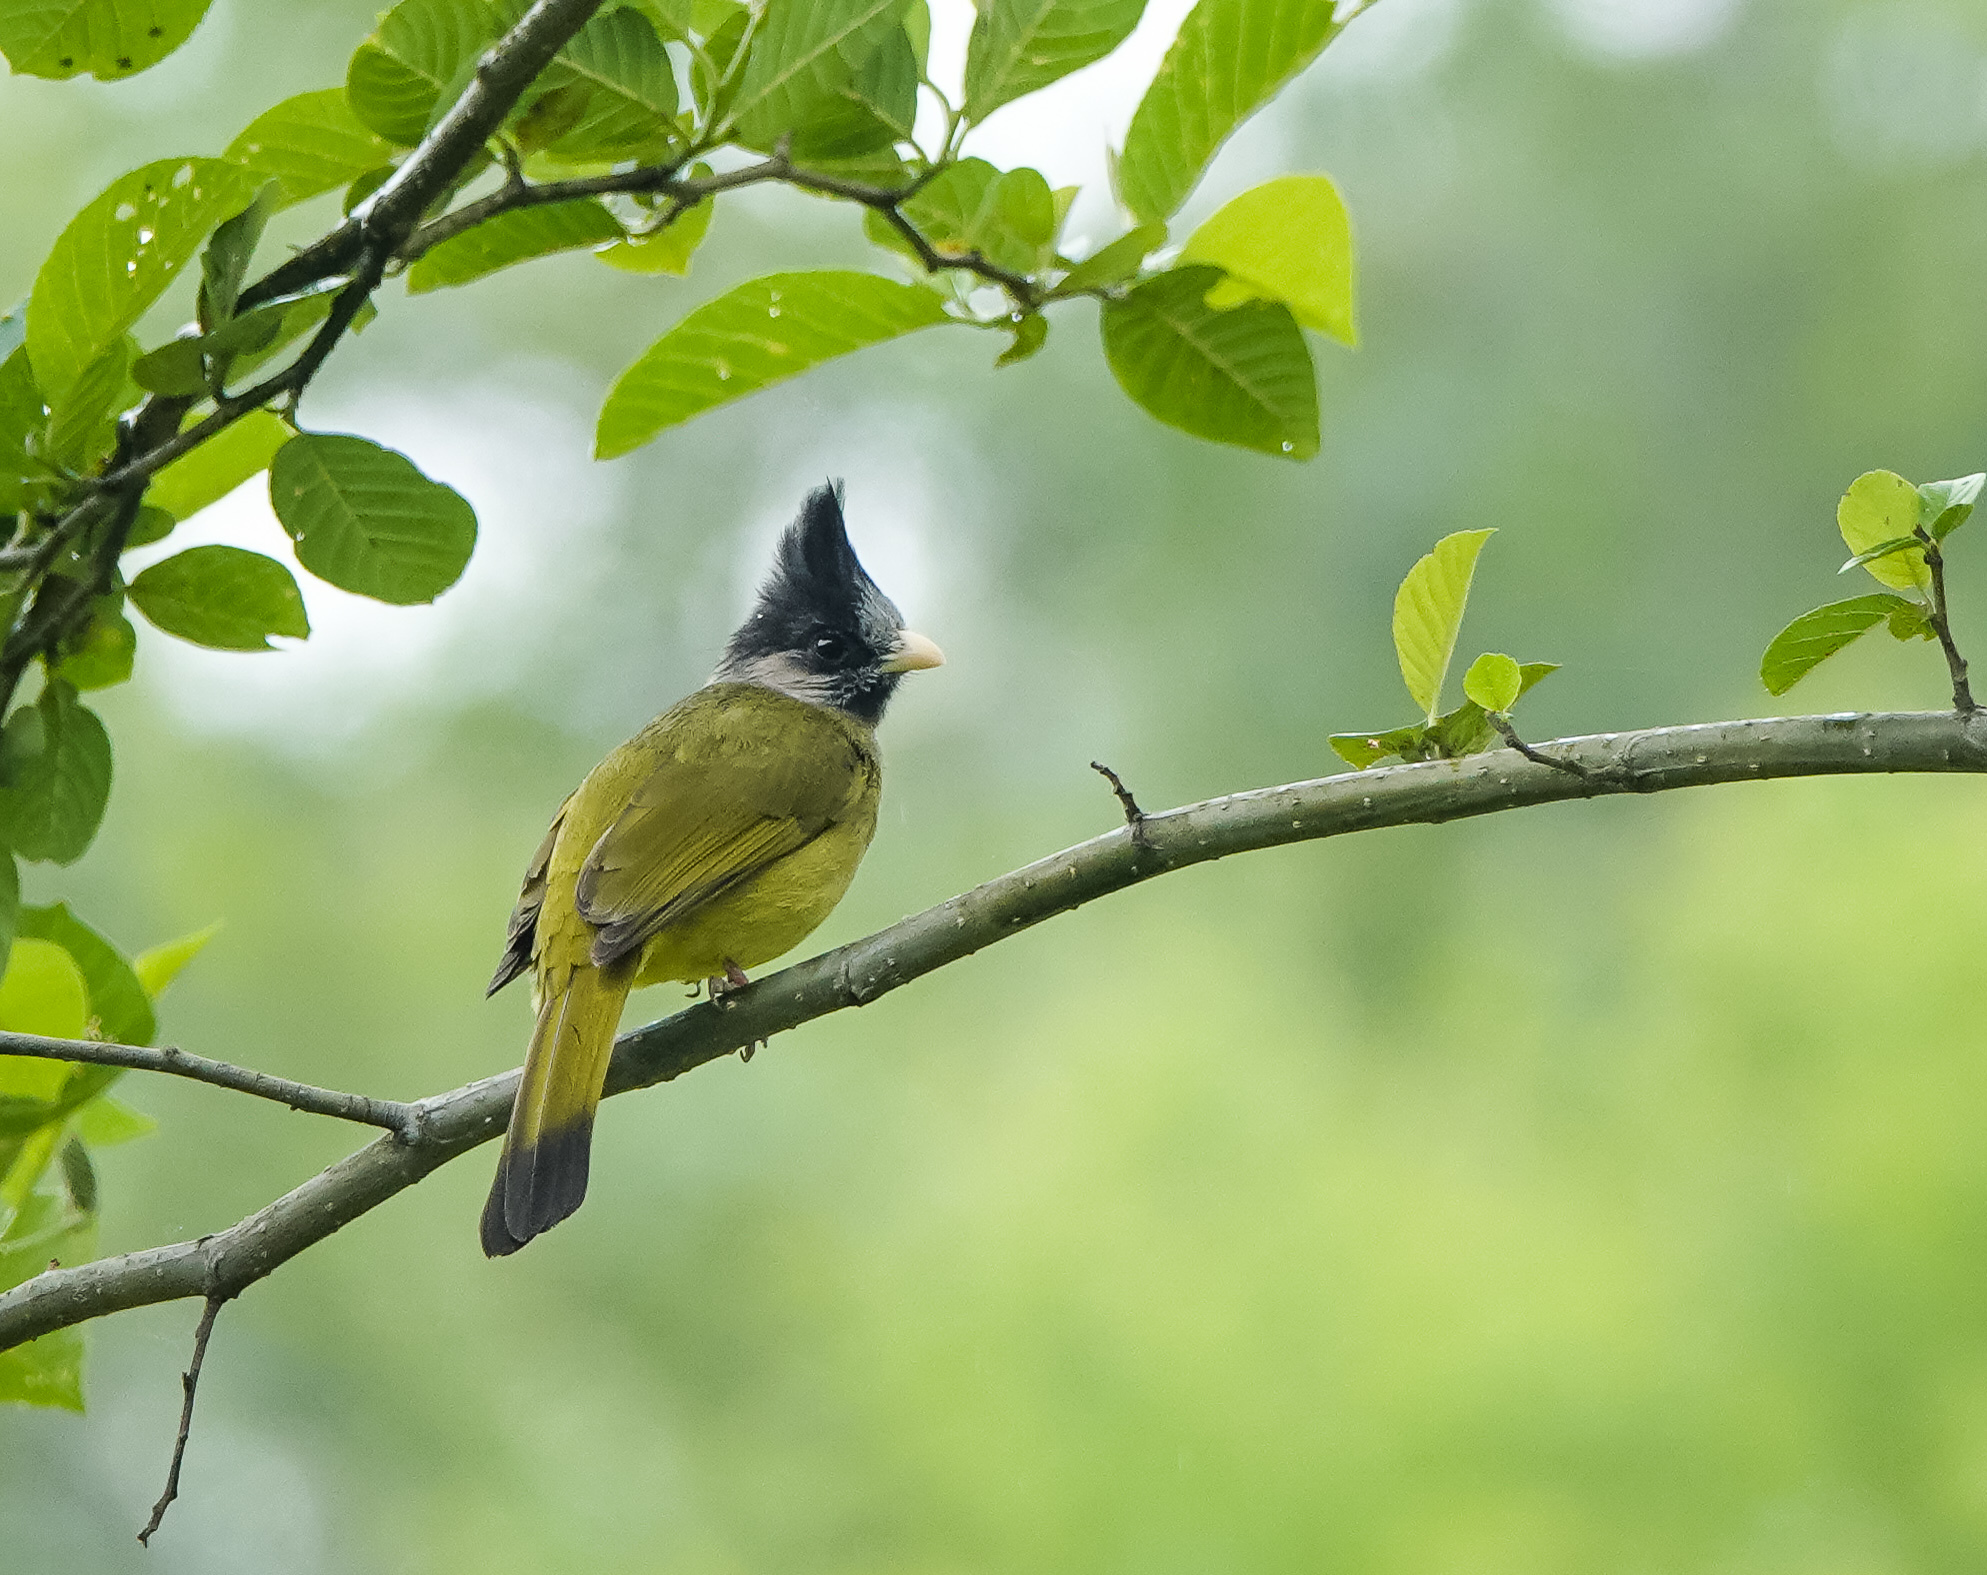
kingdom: Animalia
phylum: Chordata
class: Aves
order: Passeriformes
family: Pycnonotidae
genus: Spizixos
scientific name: Spizixos canifrons
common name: Crested finchbill
